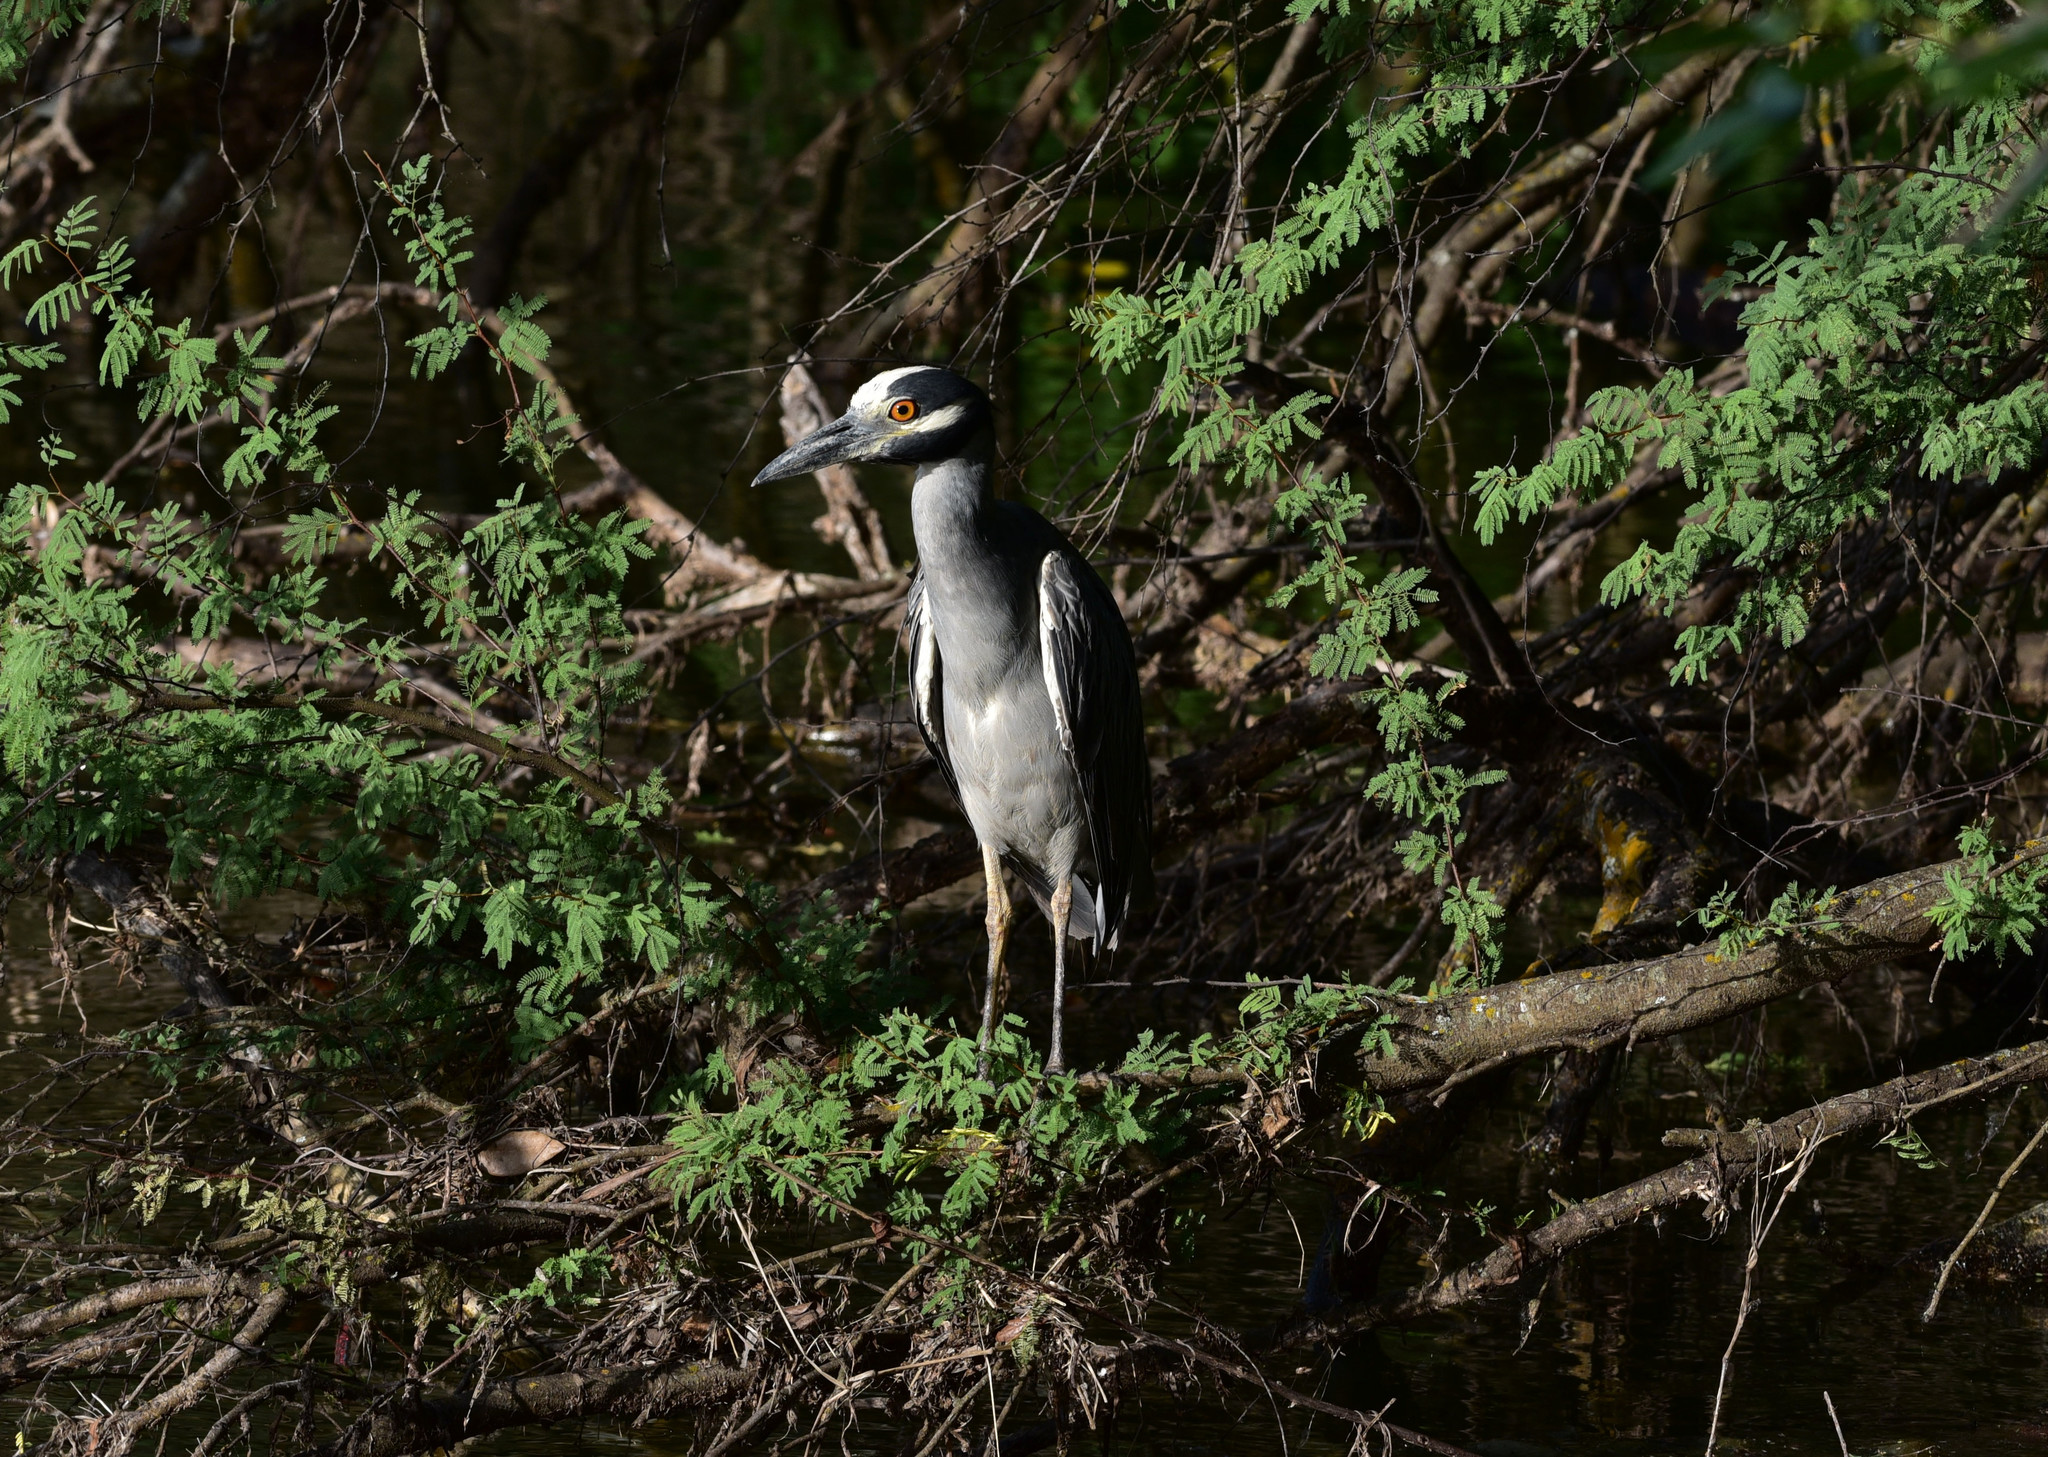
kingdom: Animalia
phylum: Chordata
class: Aves
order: Pelecaniformes
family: Ardeidae
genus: Nyctanassa
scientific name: Nyctanassa violacea
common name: Yellow-crowned night heron
